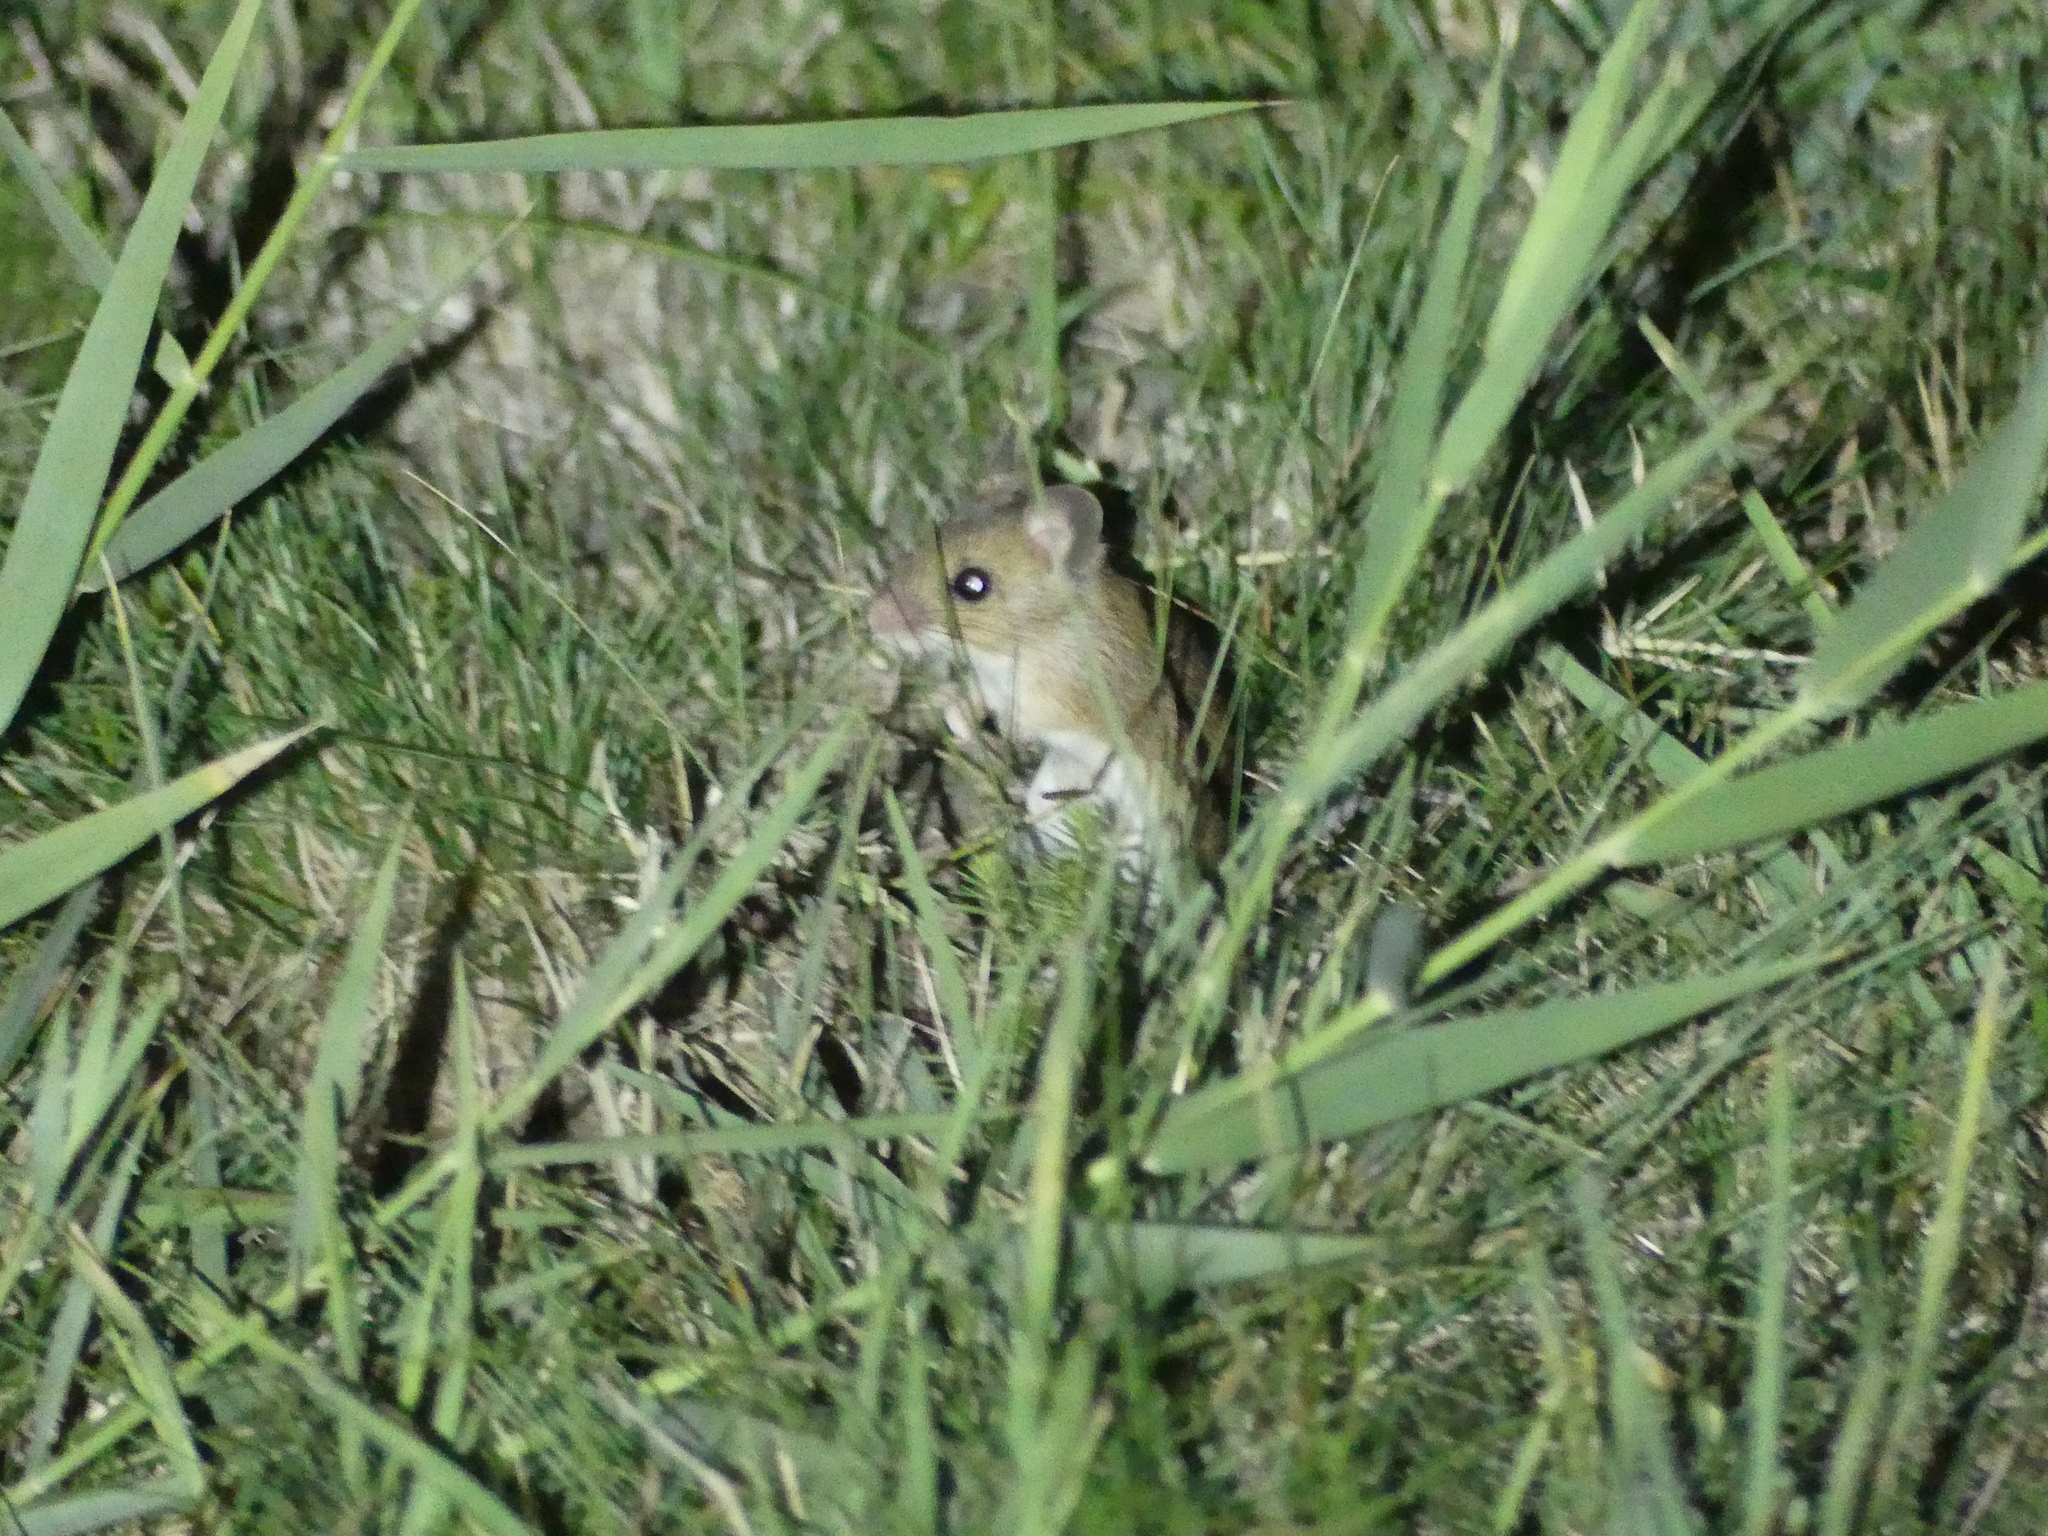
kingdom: Animalia
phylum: Chordata
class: Mammalia
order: Rodentia
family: Muridae
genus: Apodemus
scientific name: Apodemus uralensis
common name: Herb field mouse
